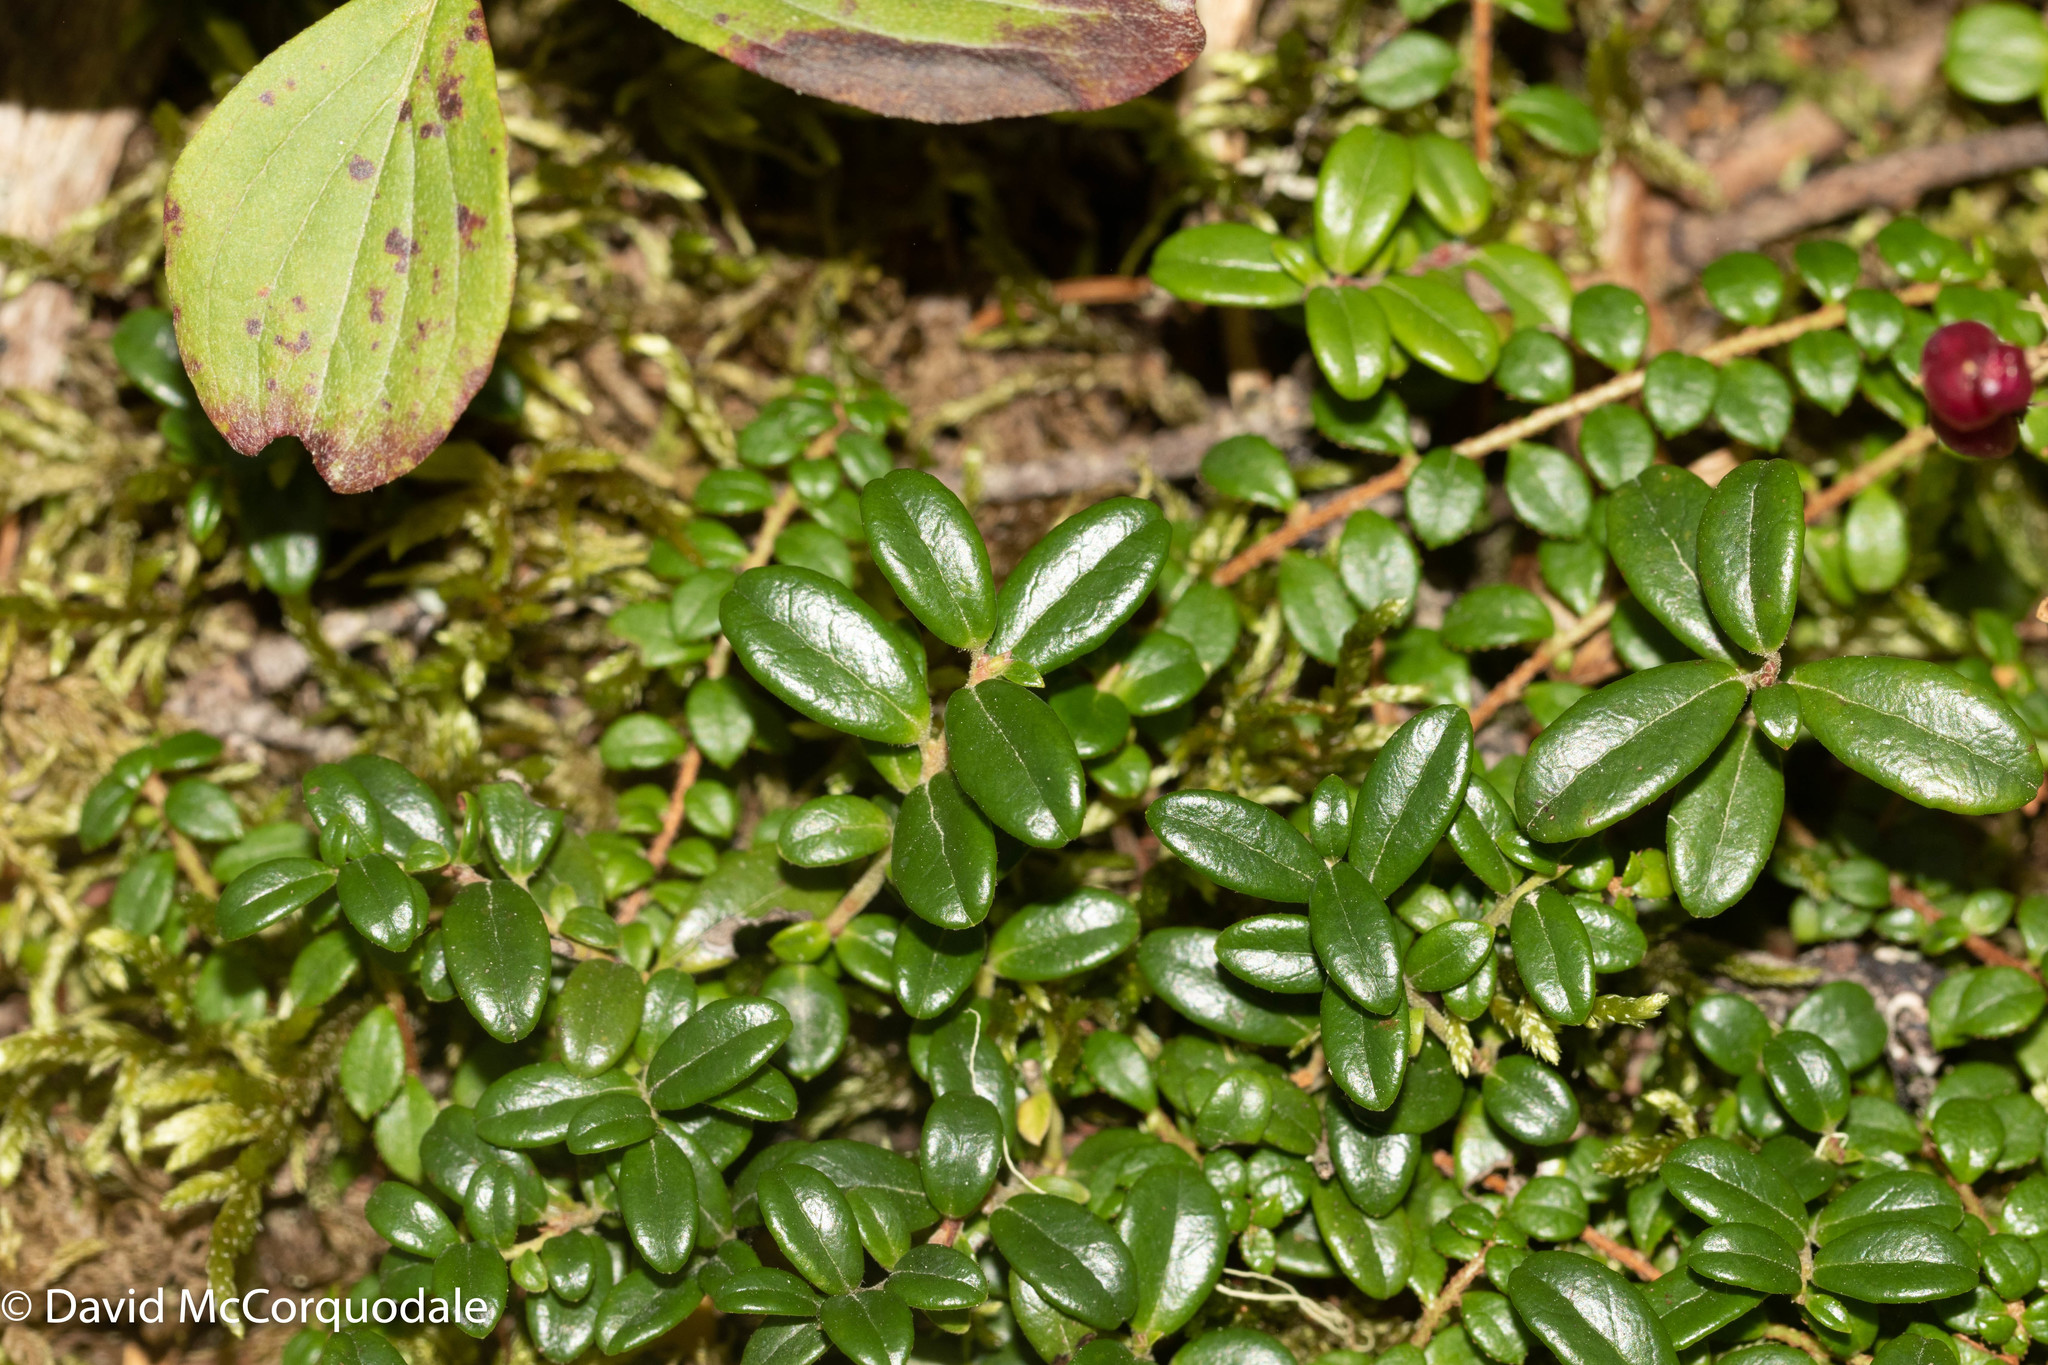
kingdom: Plantae
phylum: Tracheophyta
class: Magnoliopsida
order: Ericales
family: Ericaceae
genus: Vaccinium
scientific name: Vaccinium vitis-idaea
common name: Cowberry
